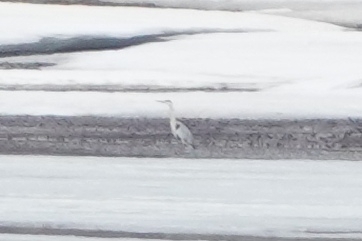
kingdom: Animalia
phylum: Chordata
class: Aves
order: Pelecaniformes
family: Ardeidae
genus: Ardea
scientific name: Ardea cinerea
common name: Grey heron
